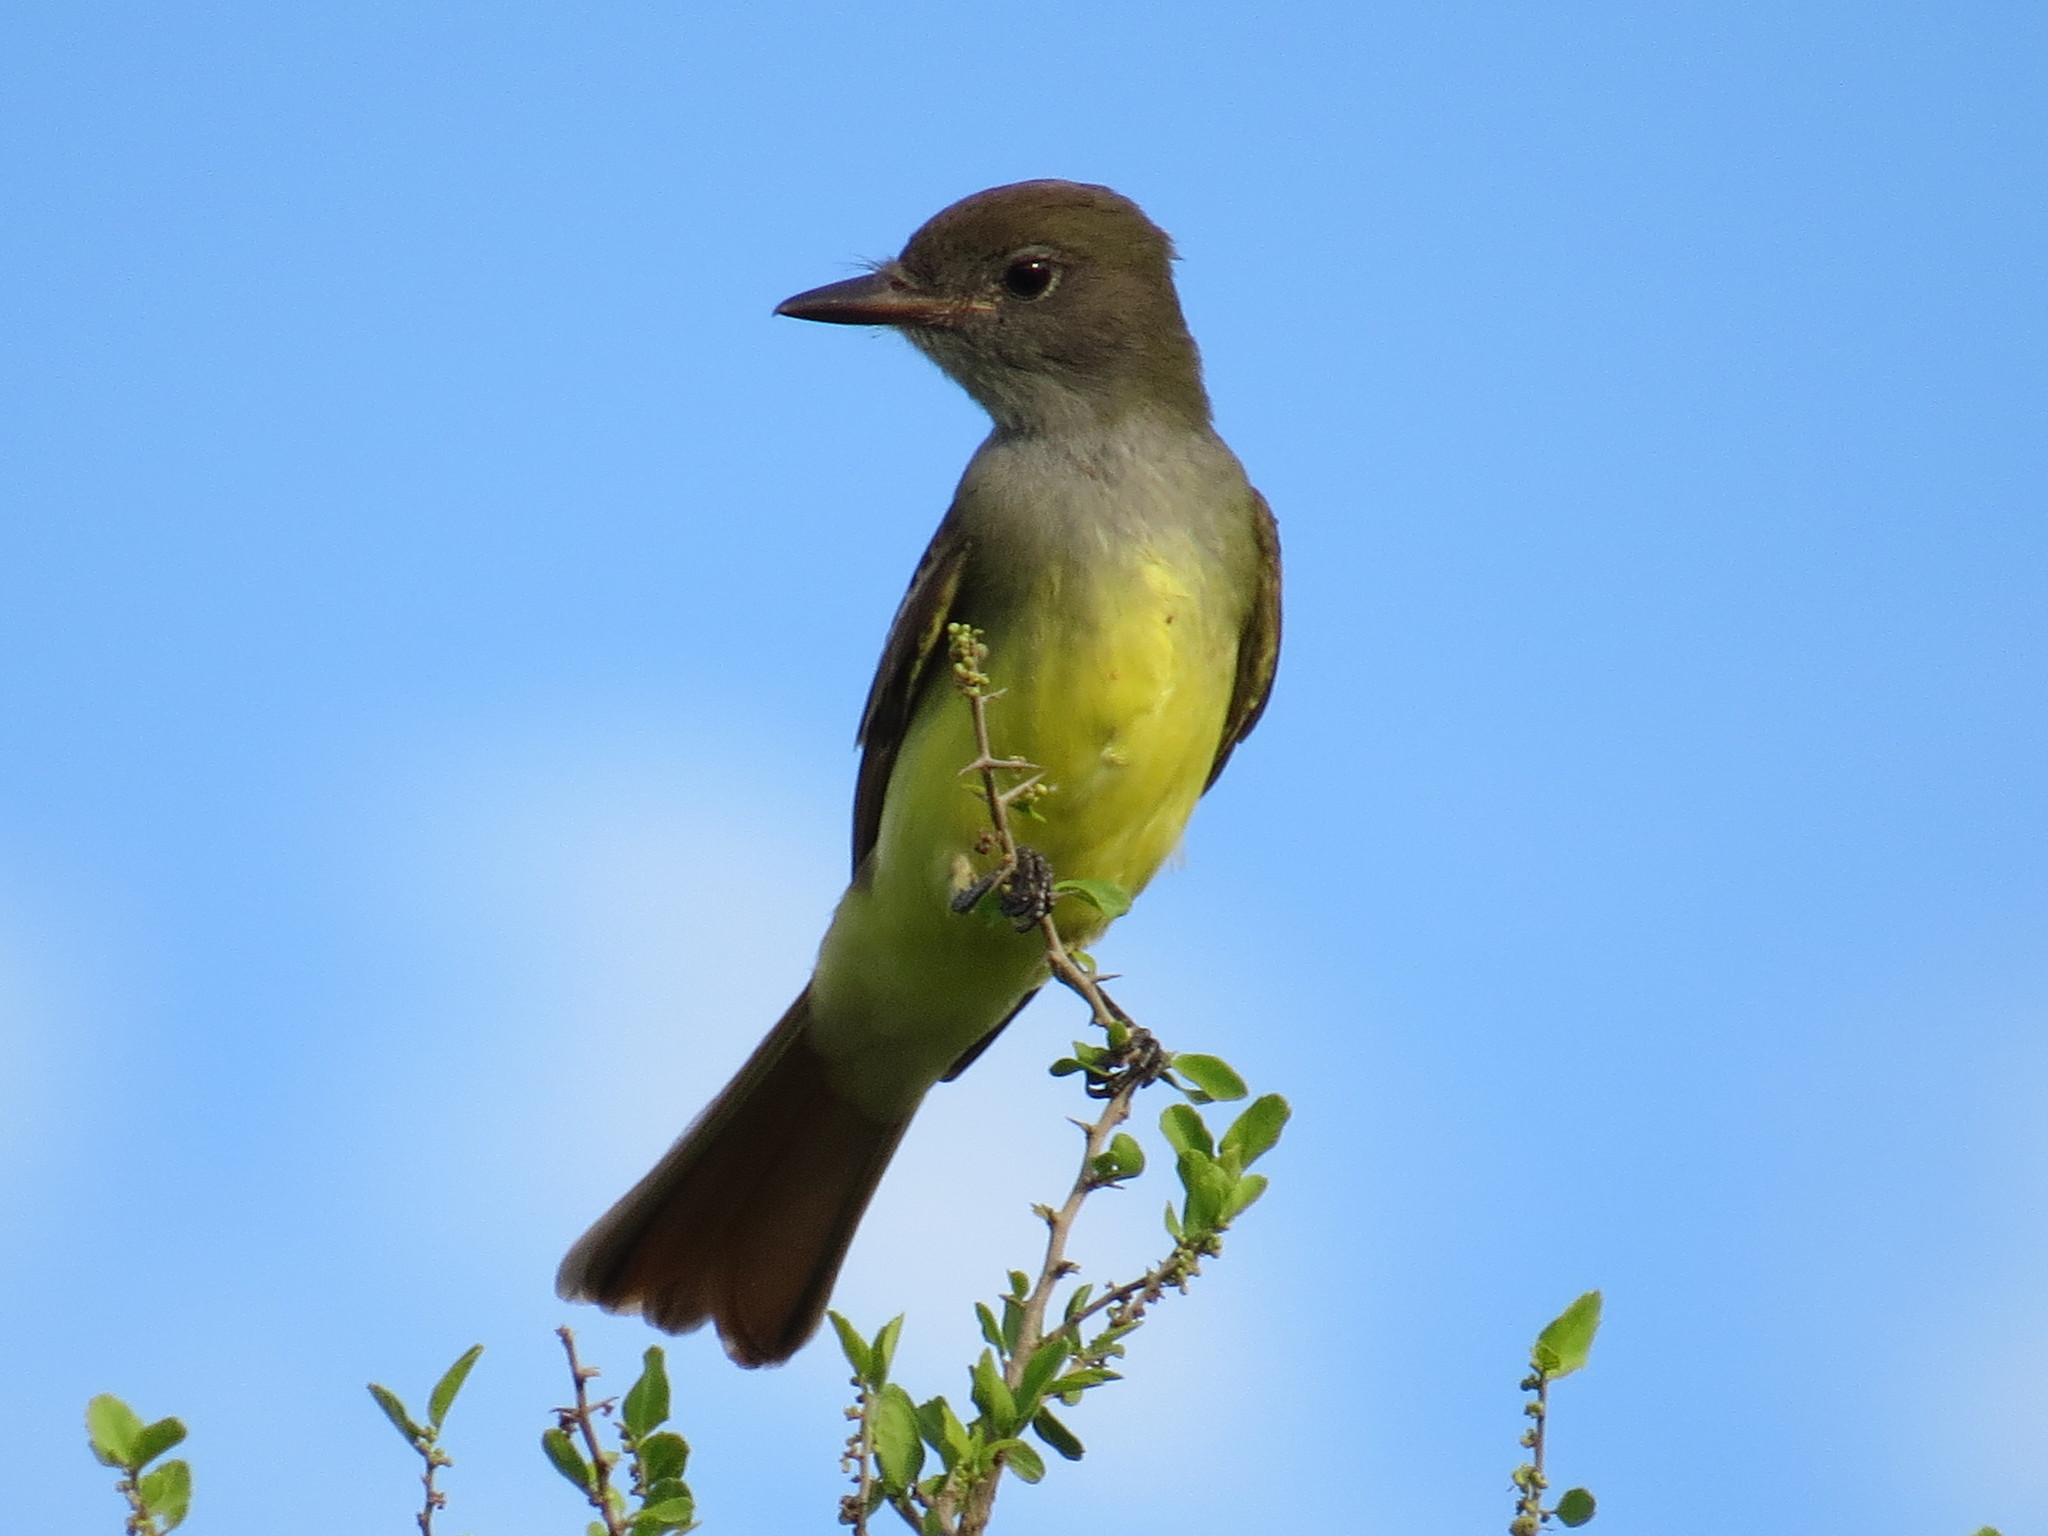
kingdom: Animalia
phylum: Chordata
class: Aves
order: Passeriformes
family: Tyrannidae
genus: Myiarchus
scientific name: Myiarchus crinitus
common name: Great crested flycatcher
